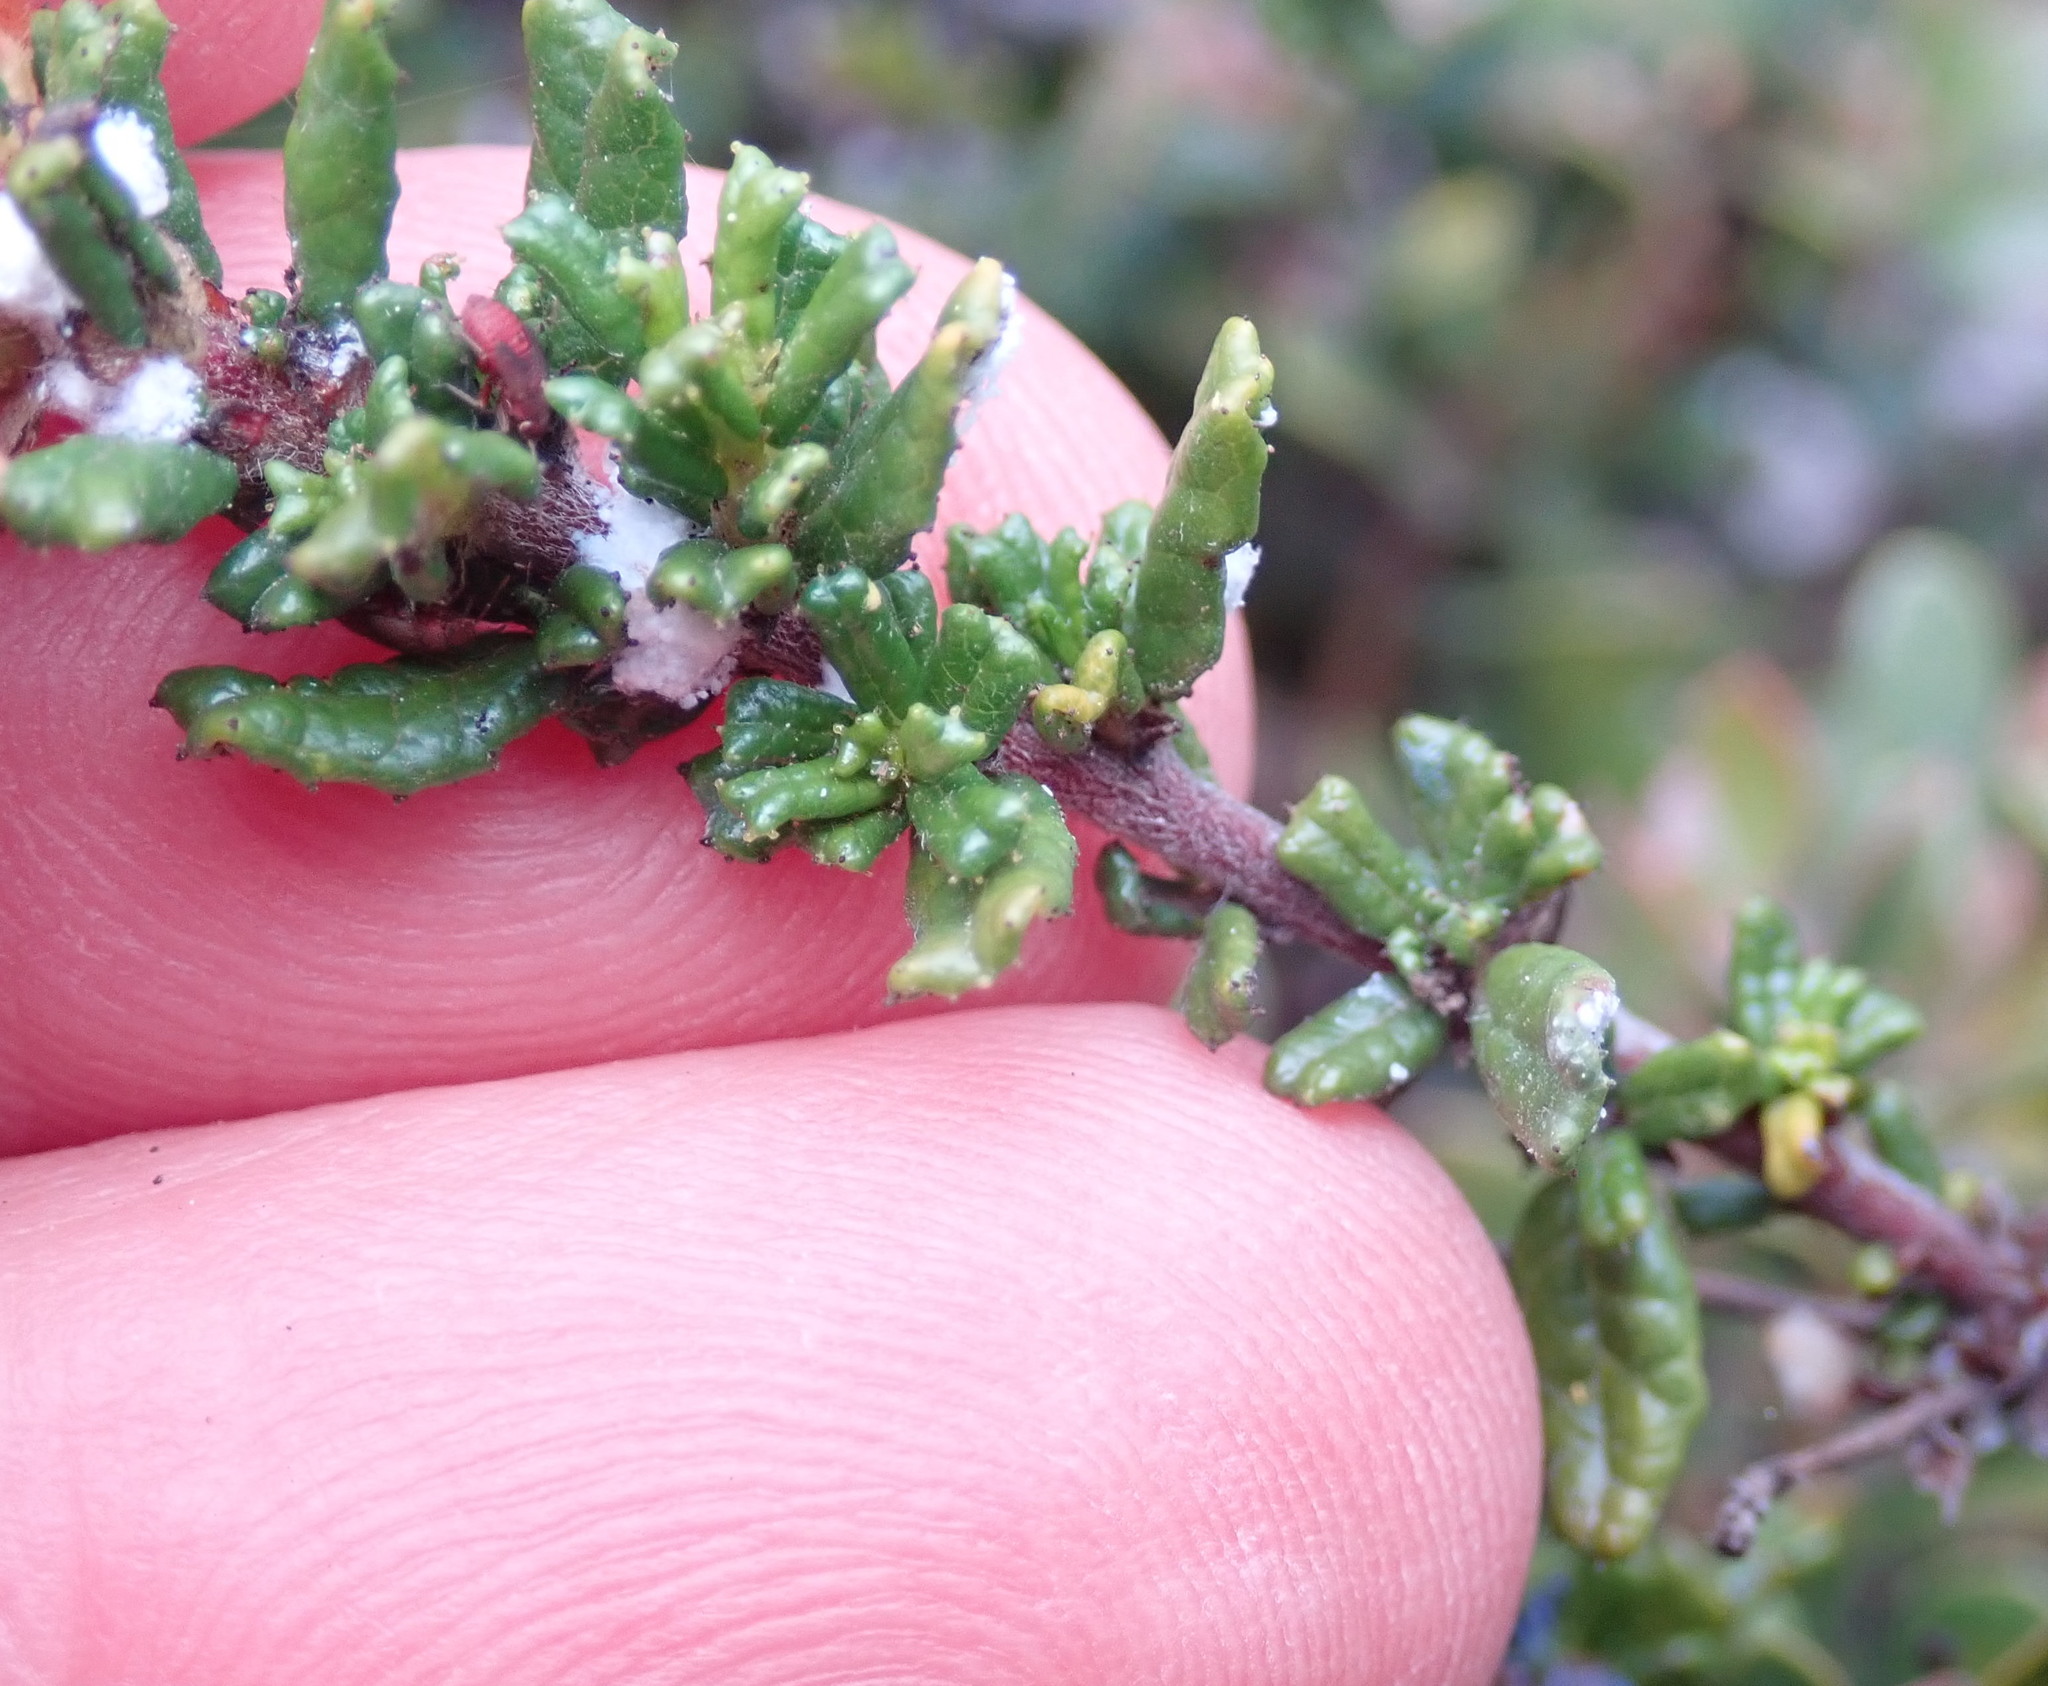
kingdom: Plantae
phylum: Tracheophyta
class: Magnoliopsida
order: Rosales
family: Rhamnaceae
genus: Ceanothus
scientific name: Ceanothus dentatus
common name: Crop-leaf ceanothus
